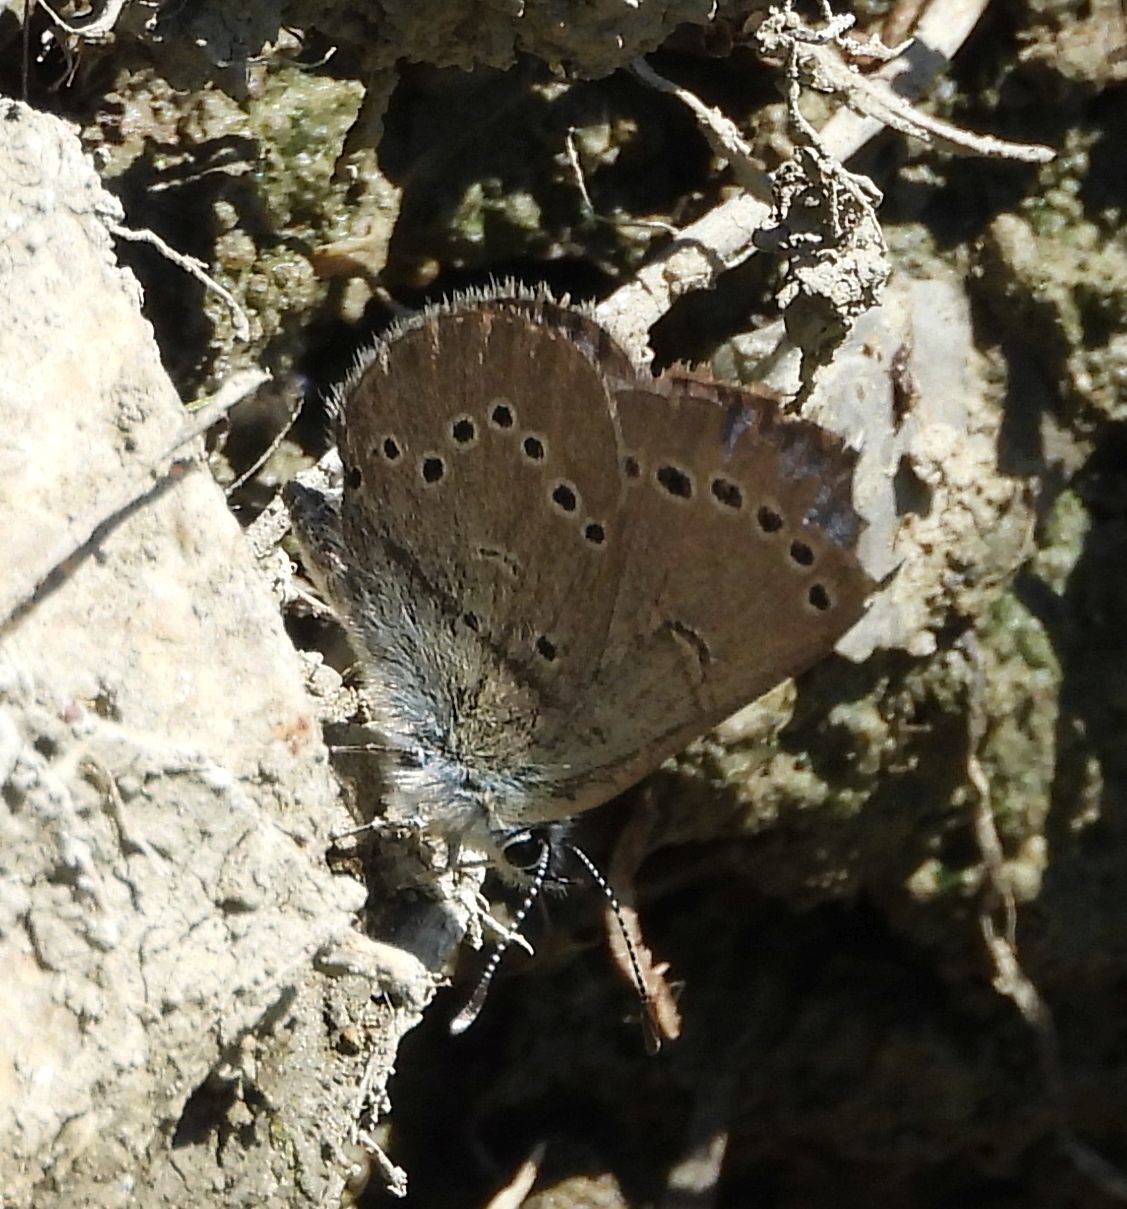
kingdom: Animalia
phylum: Arthropoda
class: Insecta
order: Lepidoptera
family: Lycaenidae
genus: Glaucopsyche
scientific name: Glaucopsyche lygdamus
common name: Silvery blue
